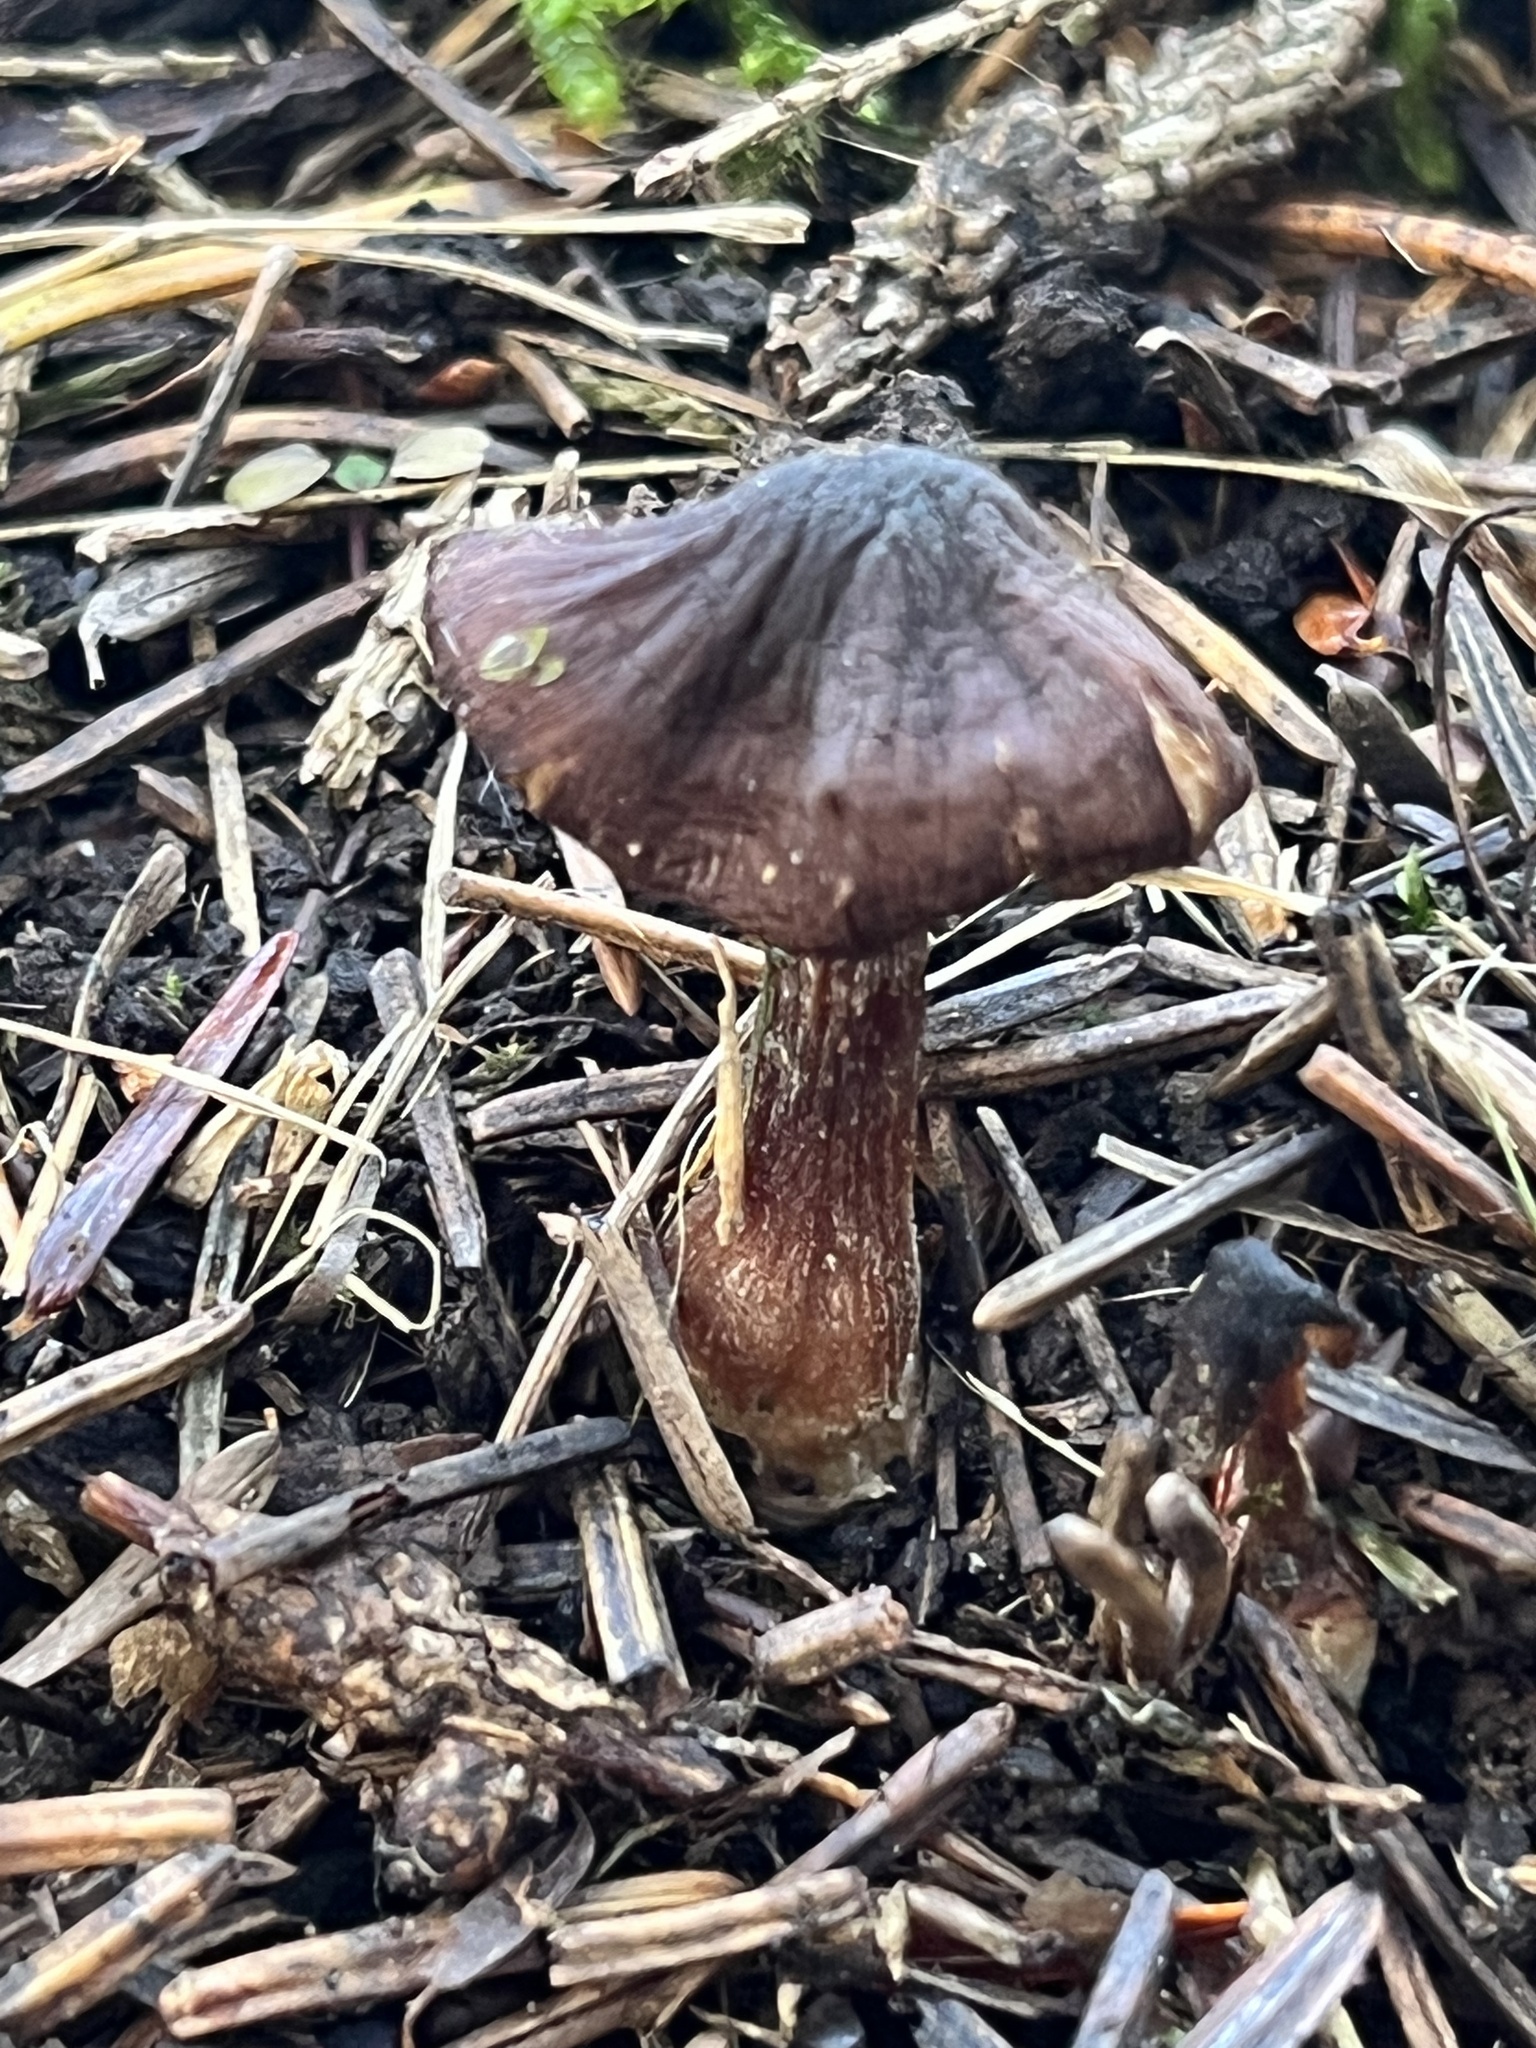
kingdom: Fungi
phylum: Basidiomycota
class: Agaricomycetes
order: Agaricales
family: Omphalotaceae
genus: Collybiopsis
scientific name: Collybiopsis luxurians
